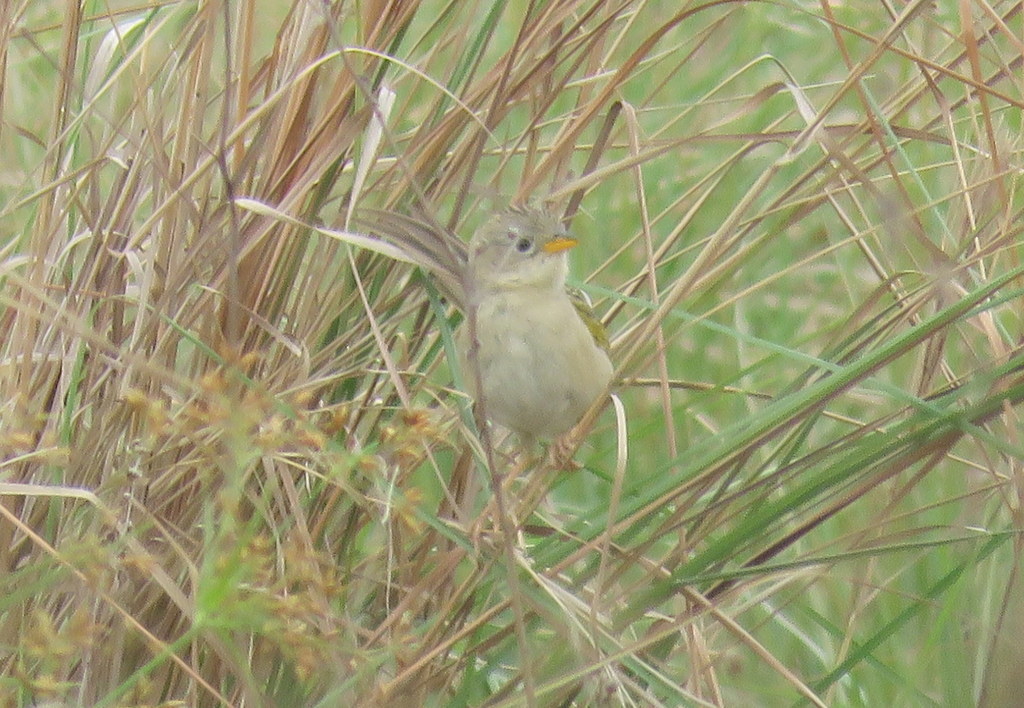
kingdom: Animalia
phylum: Chordata
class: Aves
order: Passeriformes
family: Thraupidae
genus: Emberizoides
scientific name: Emberizoides herbicola
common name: Wedge-tailed grass-finch
